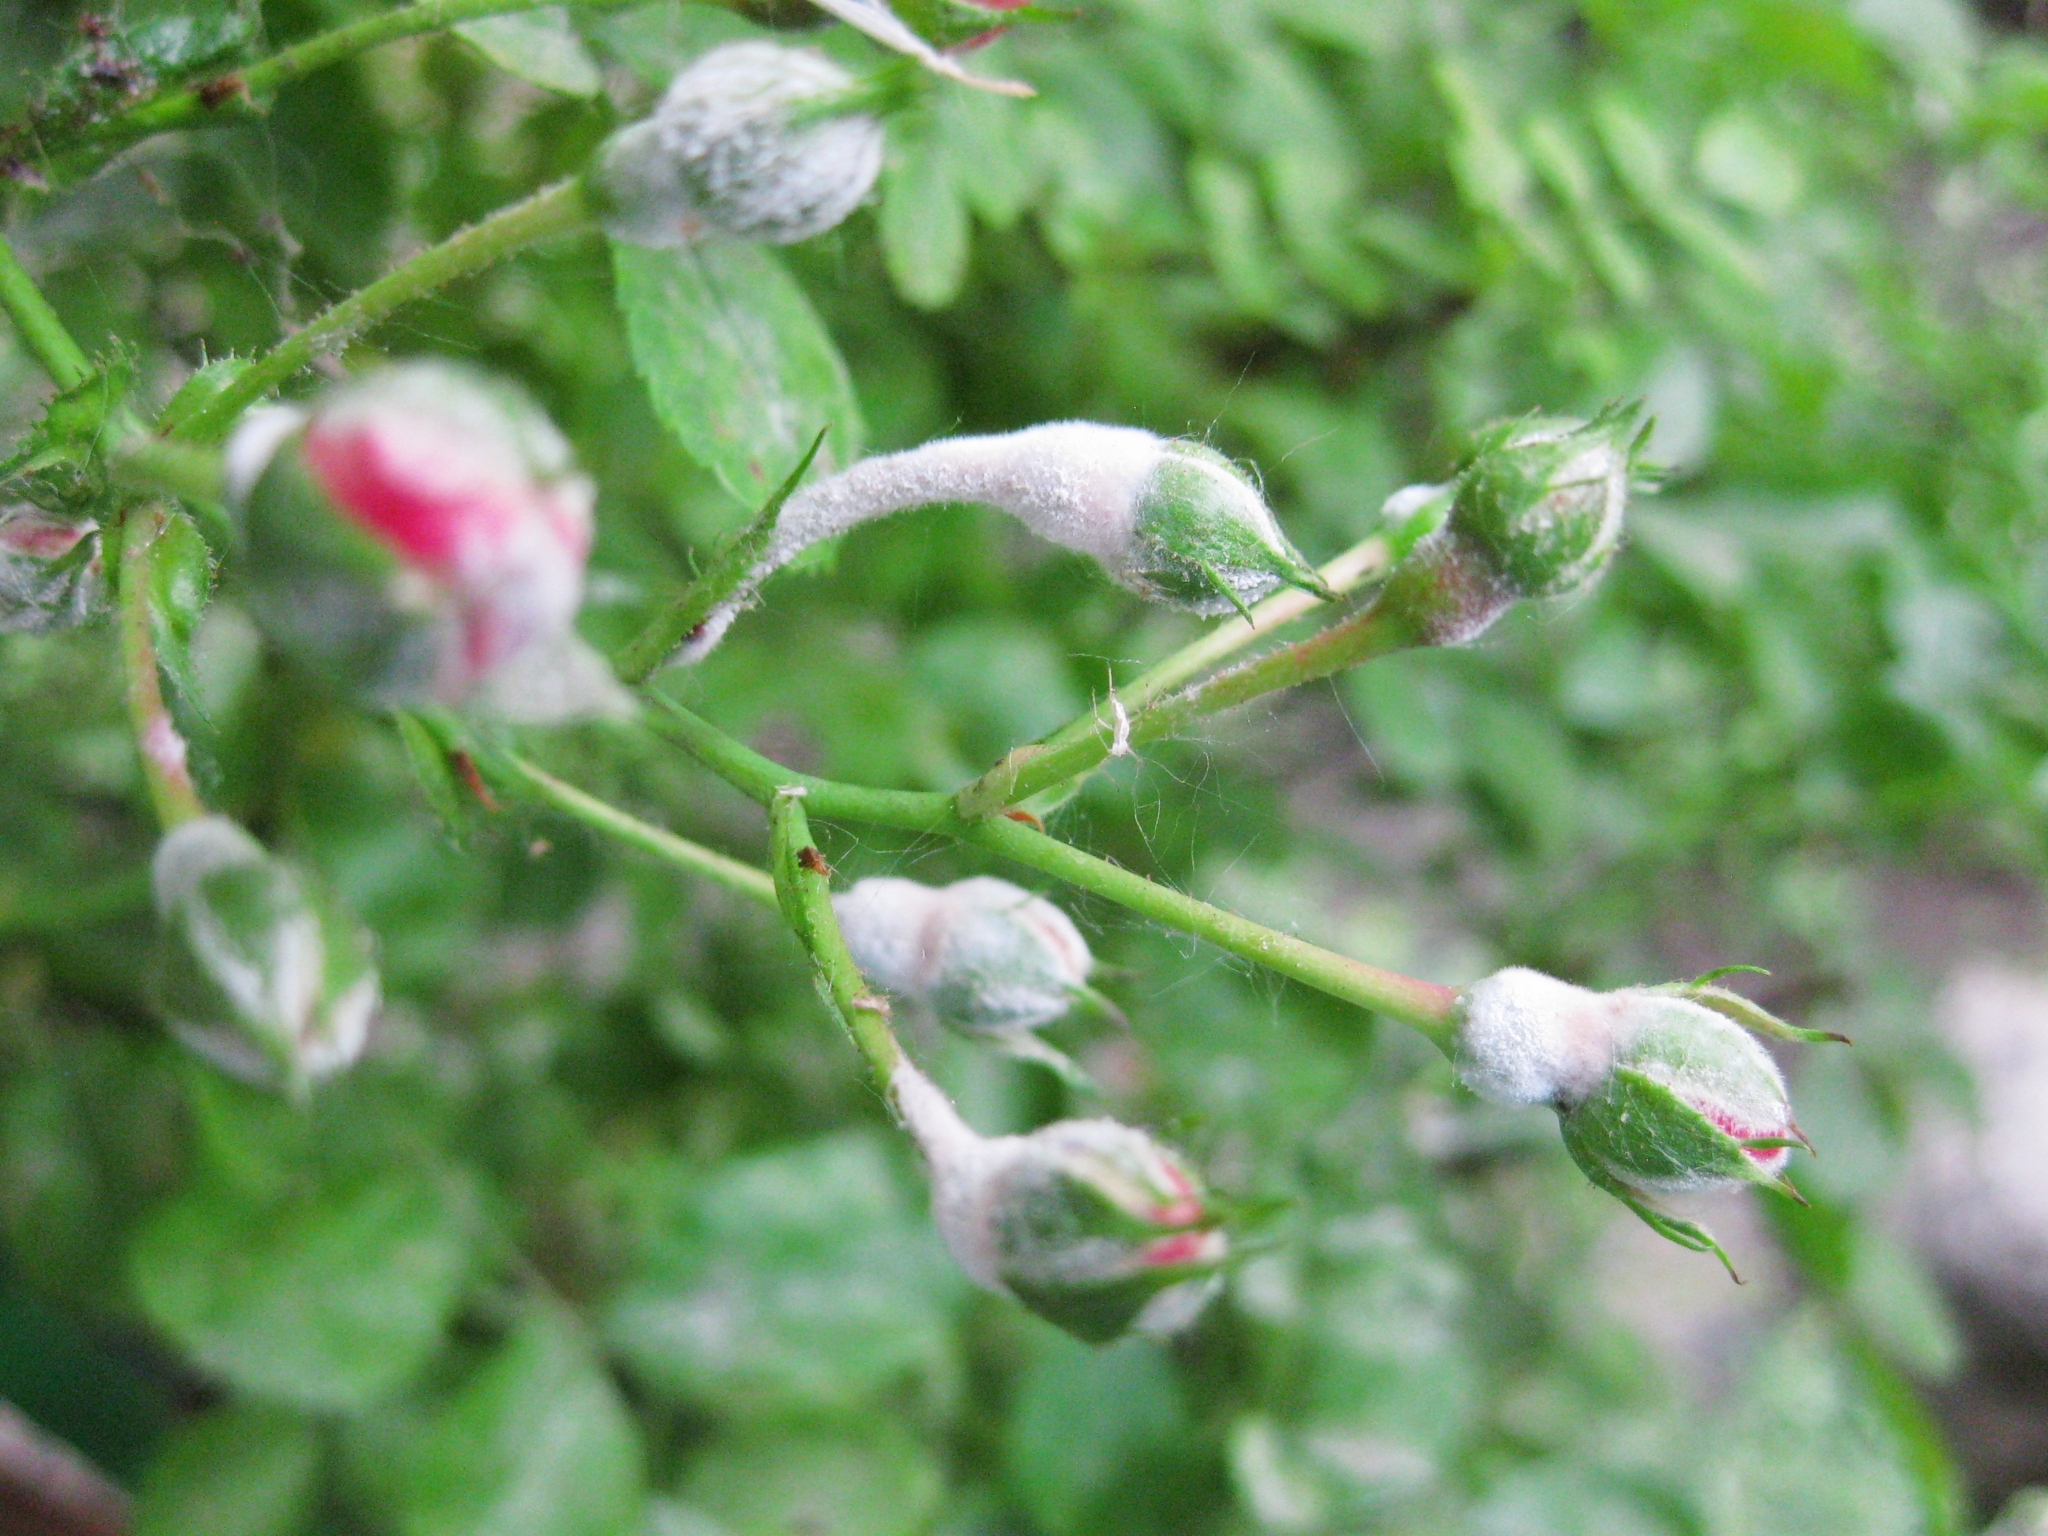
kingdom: Fungi
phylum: Ascomycota
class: Leotiomycetes
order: Helotiales
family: Erysiphaceae
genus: Podosphaera
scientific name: Podosphaera pannosa
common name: Rose mildew
